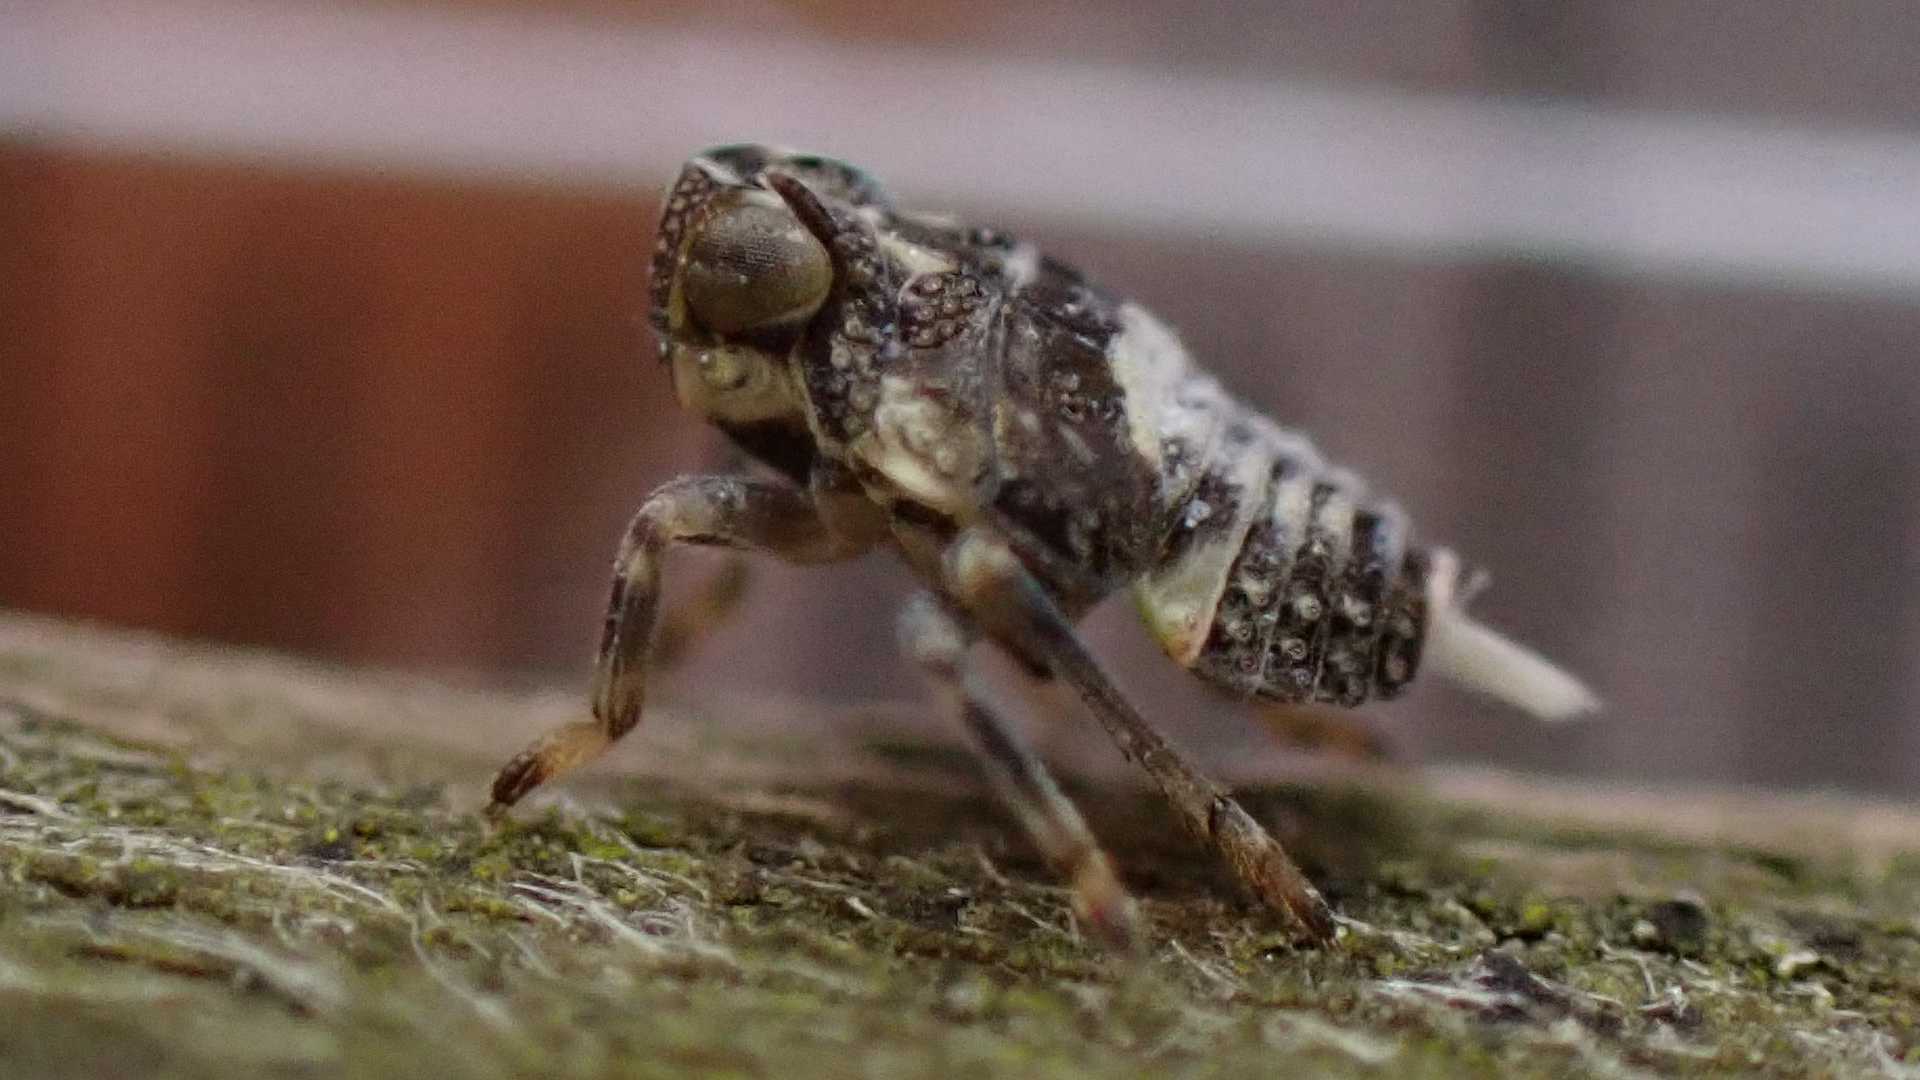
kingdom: Animalia
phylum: Arthropoda
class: Insecta
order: Hemiptera
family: Issidae
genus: Issus
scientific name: Issus
